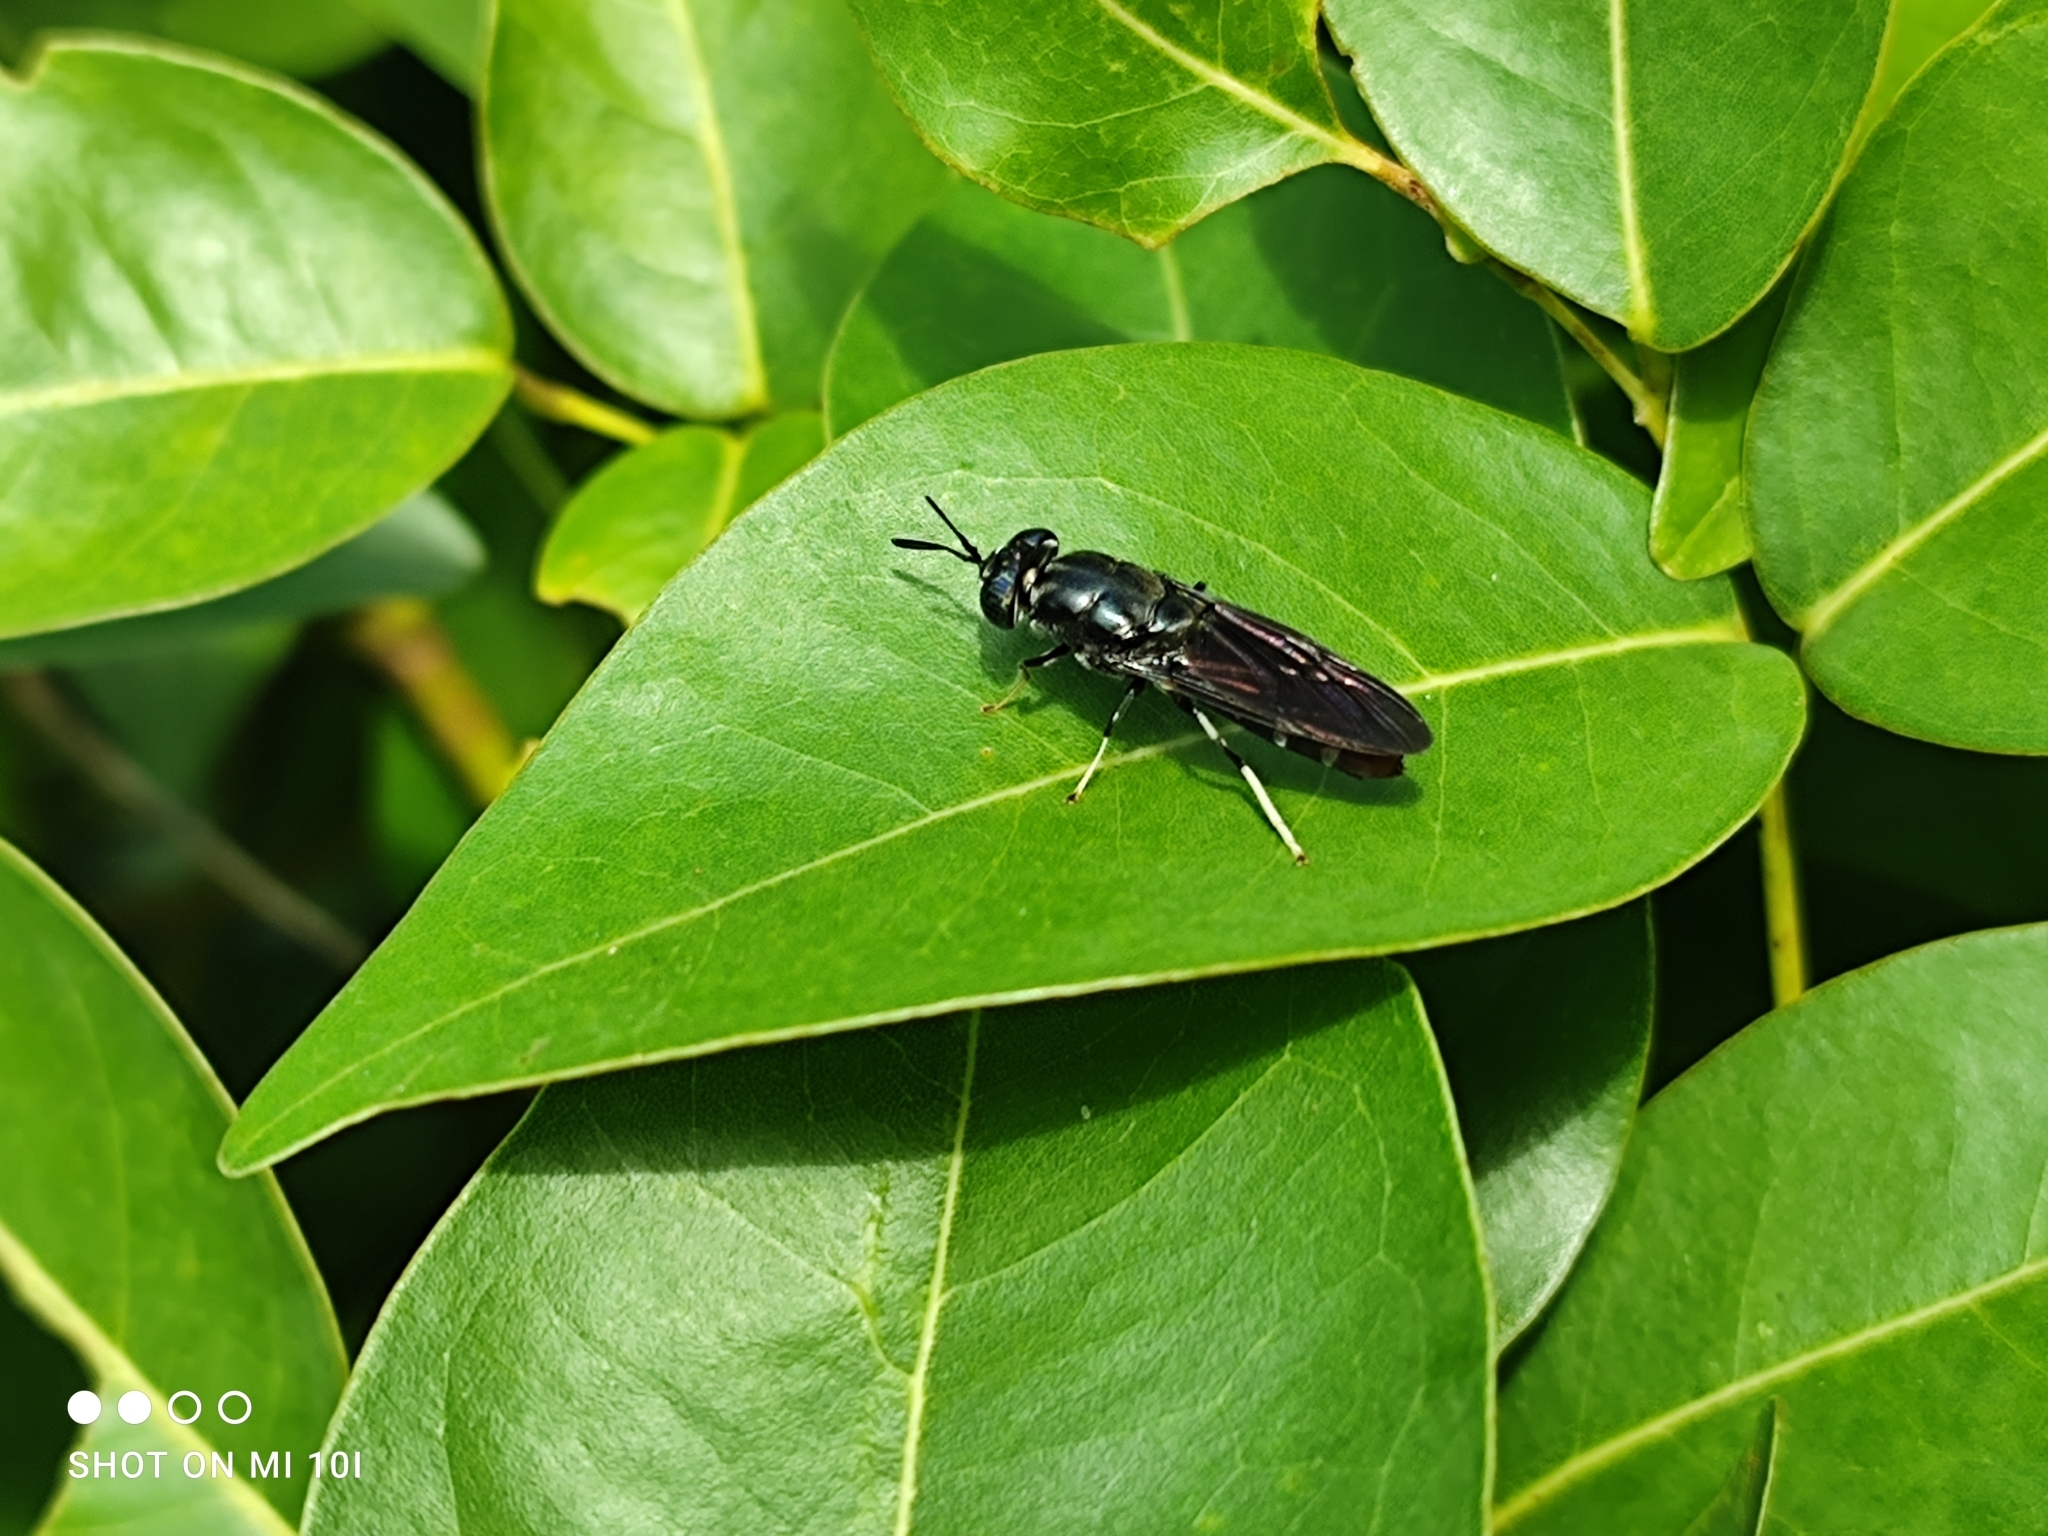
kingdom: Animalia
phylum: Arthropoda
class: Insecta
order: Diptera
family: Stratiomyidae
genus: Hermetia
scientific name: Hermetia illucens
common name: Black soldier fly
